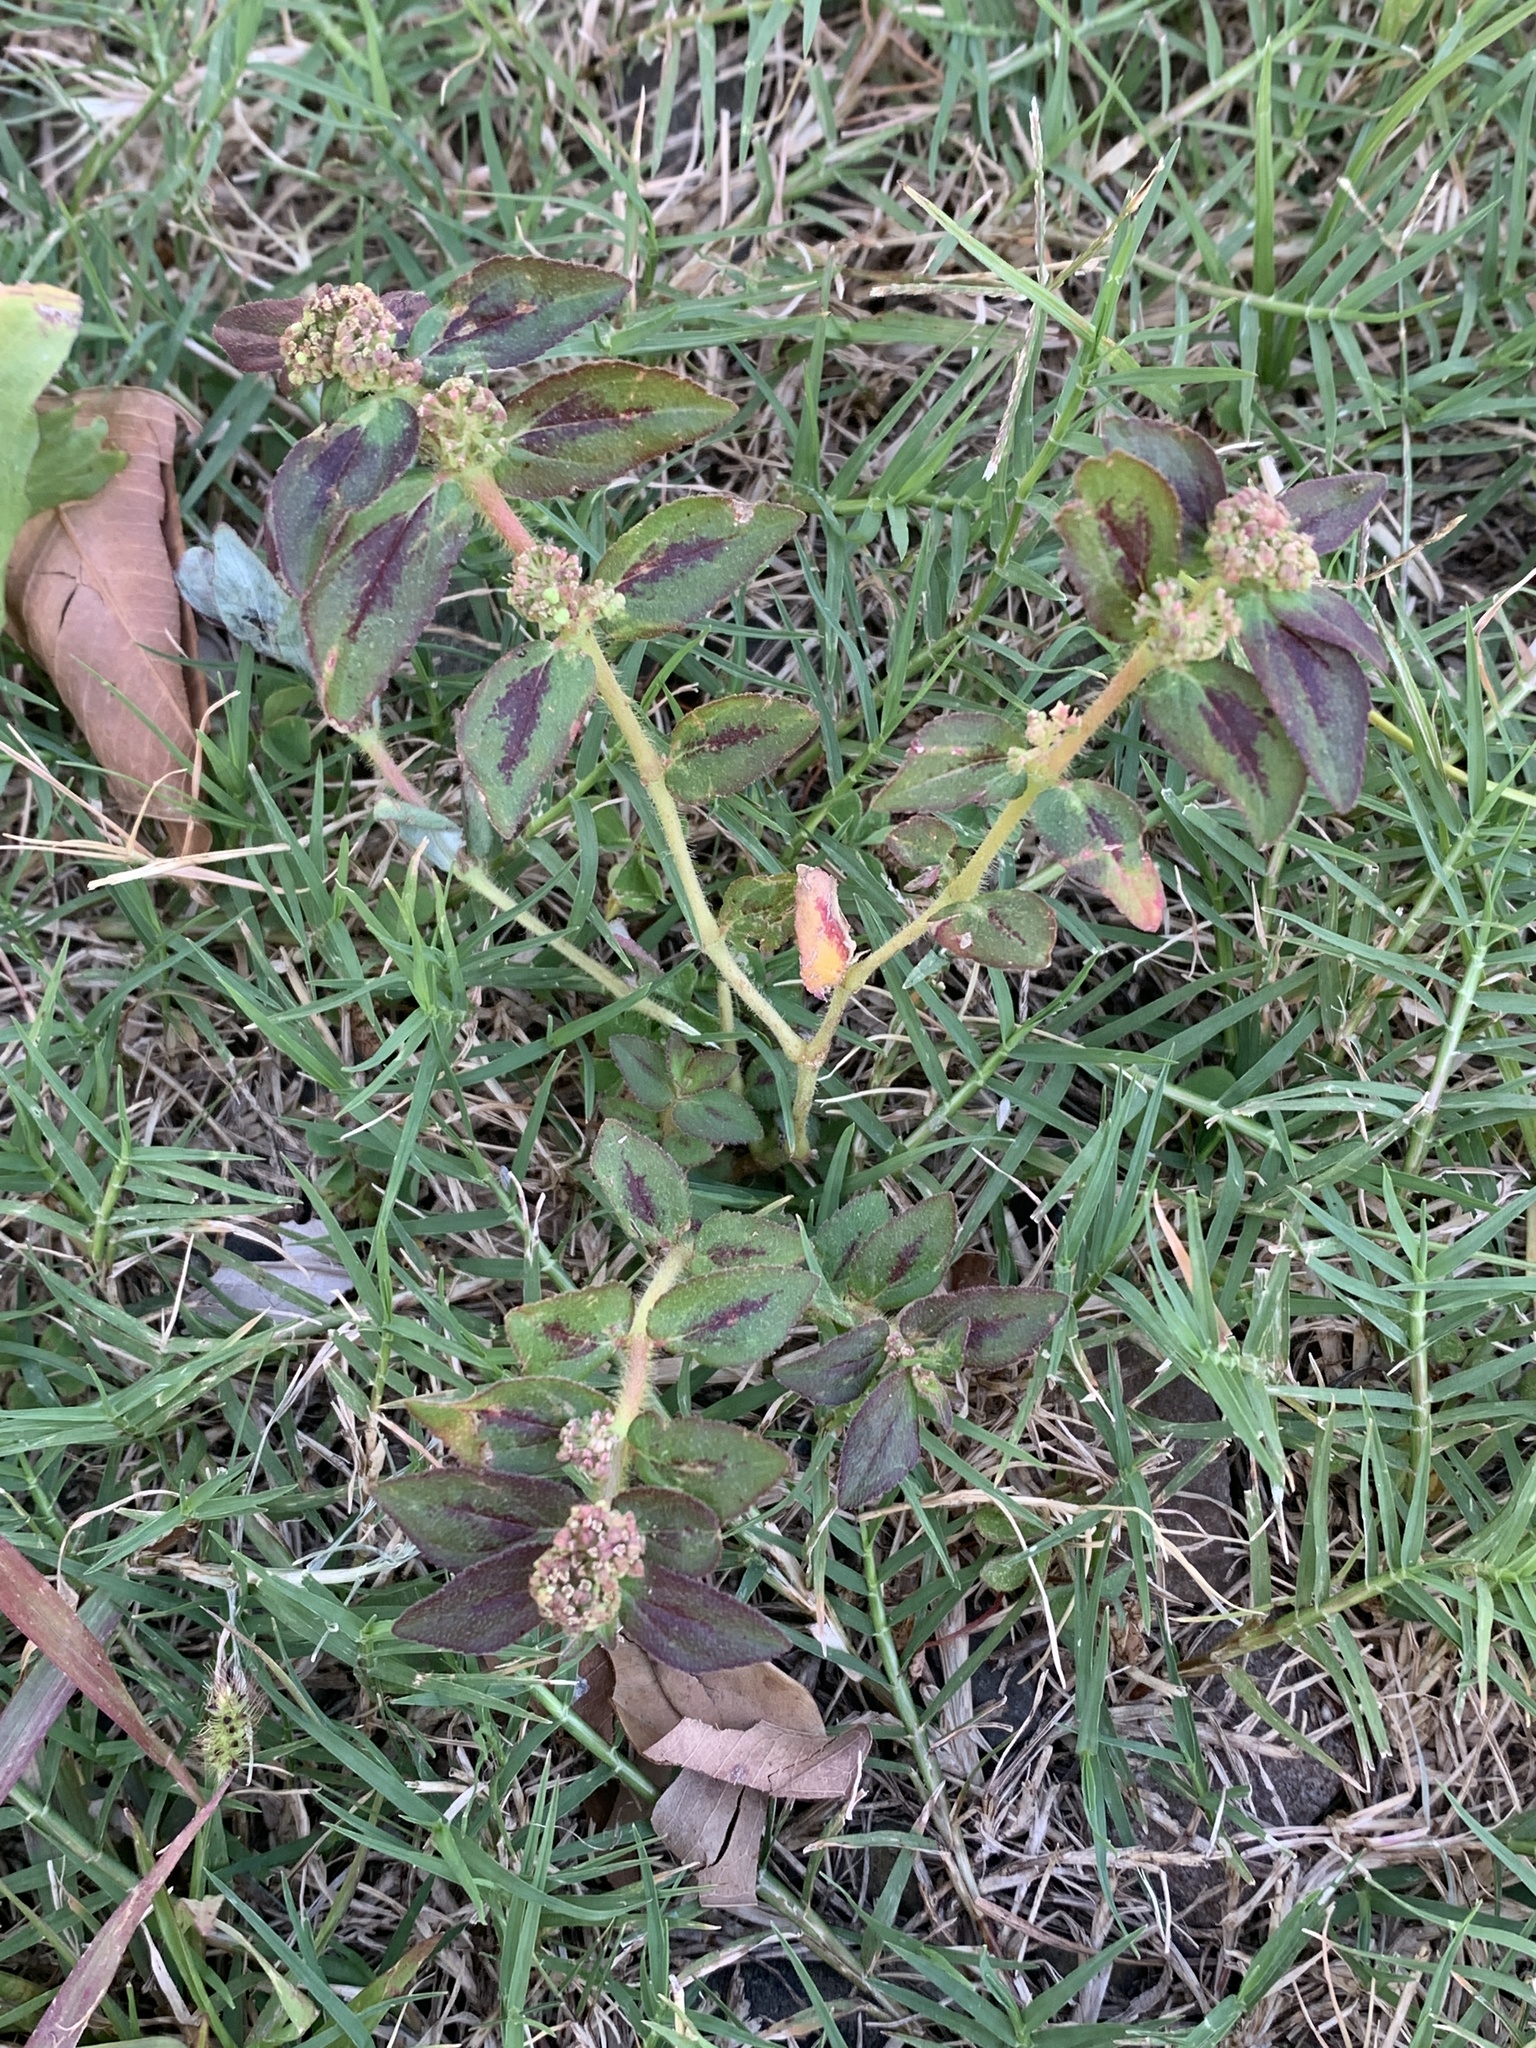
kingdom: Plantae
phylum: Tracheophyta
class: Magnoliopsida
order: Malpighiales
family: Euphorbiaceae
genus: Euphorbia
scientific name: Euphorbia hirta
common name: Pillpod sandmat
